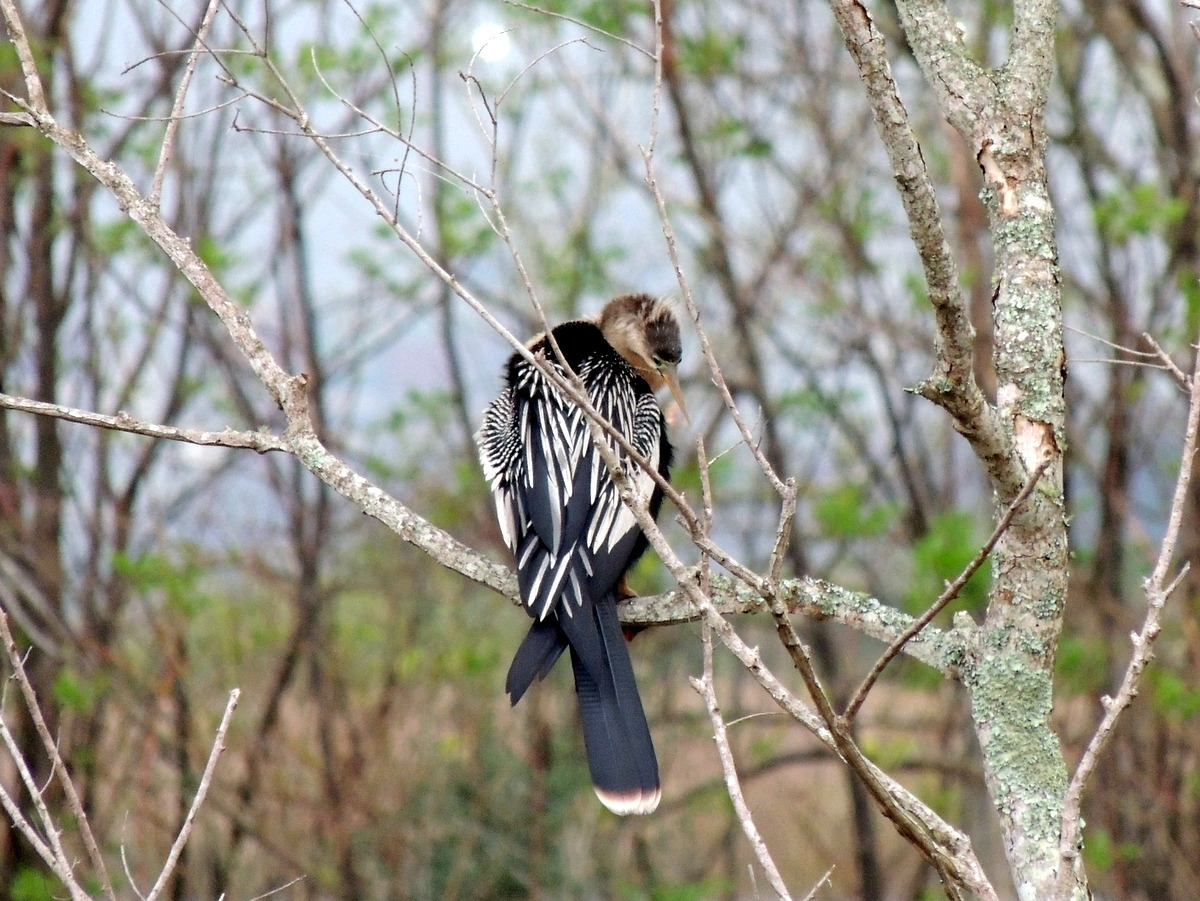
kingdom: Animalia
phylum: Chordata
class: Aves
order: Suliformes
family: Anhingidae
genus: Anhinga
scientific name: Anhinga anhinga
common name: Anhinga
